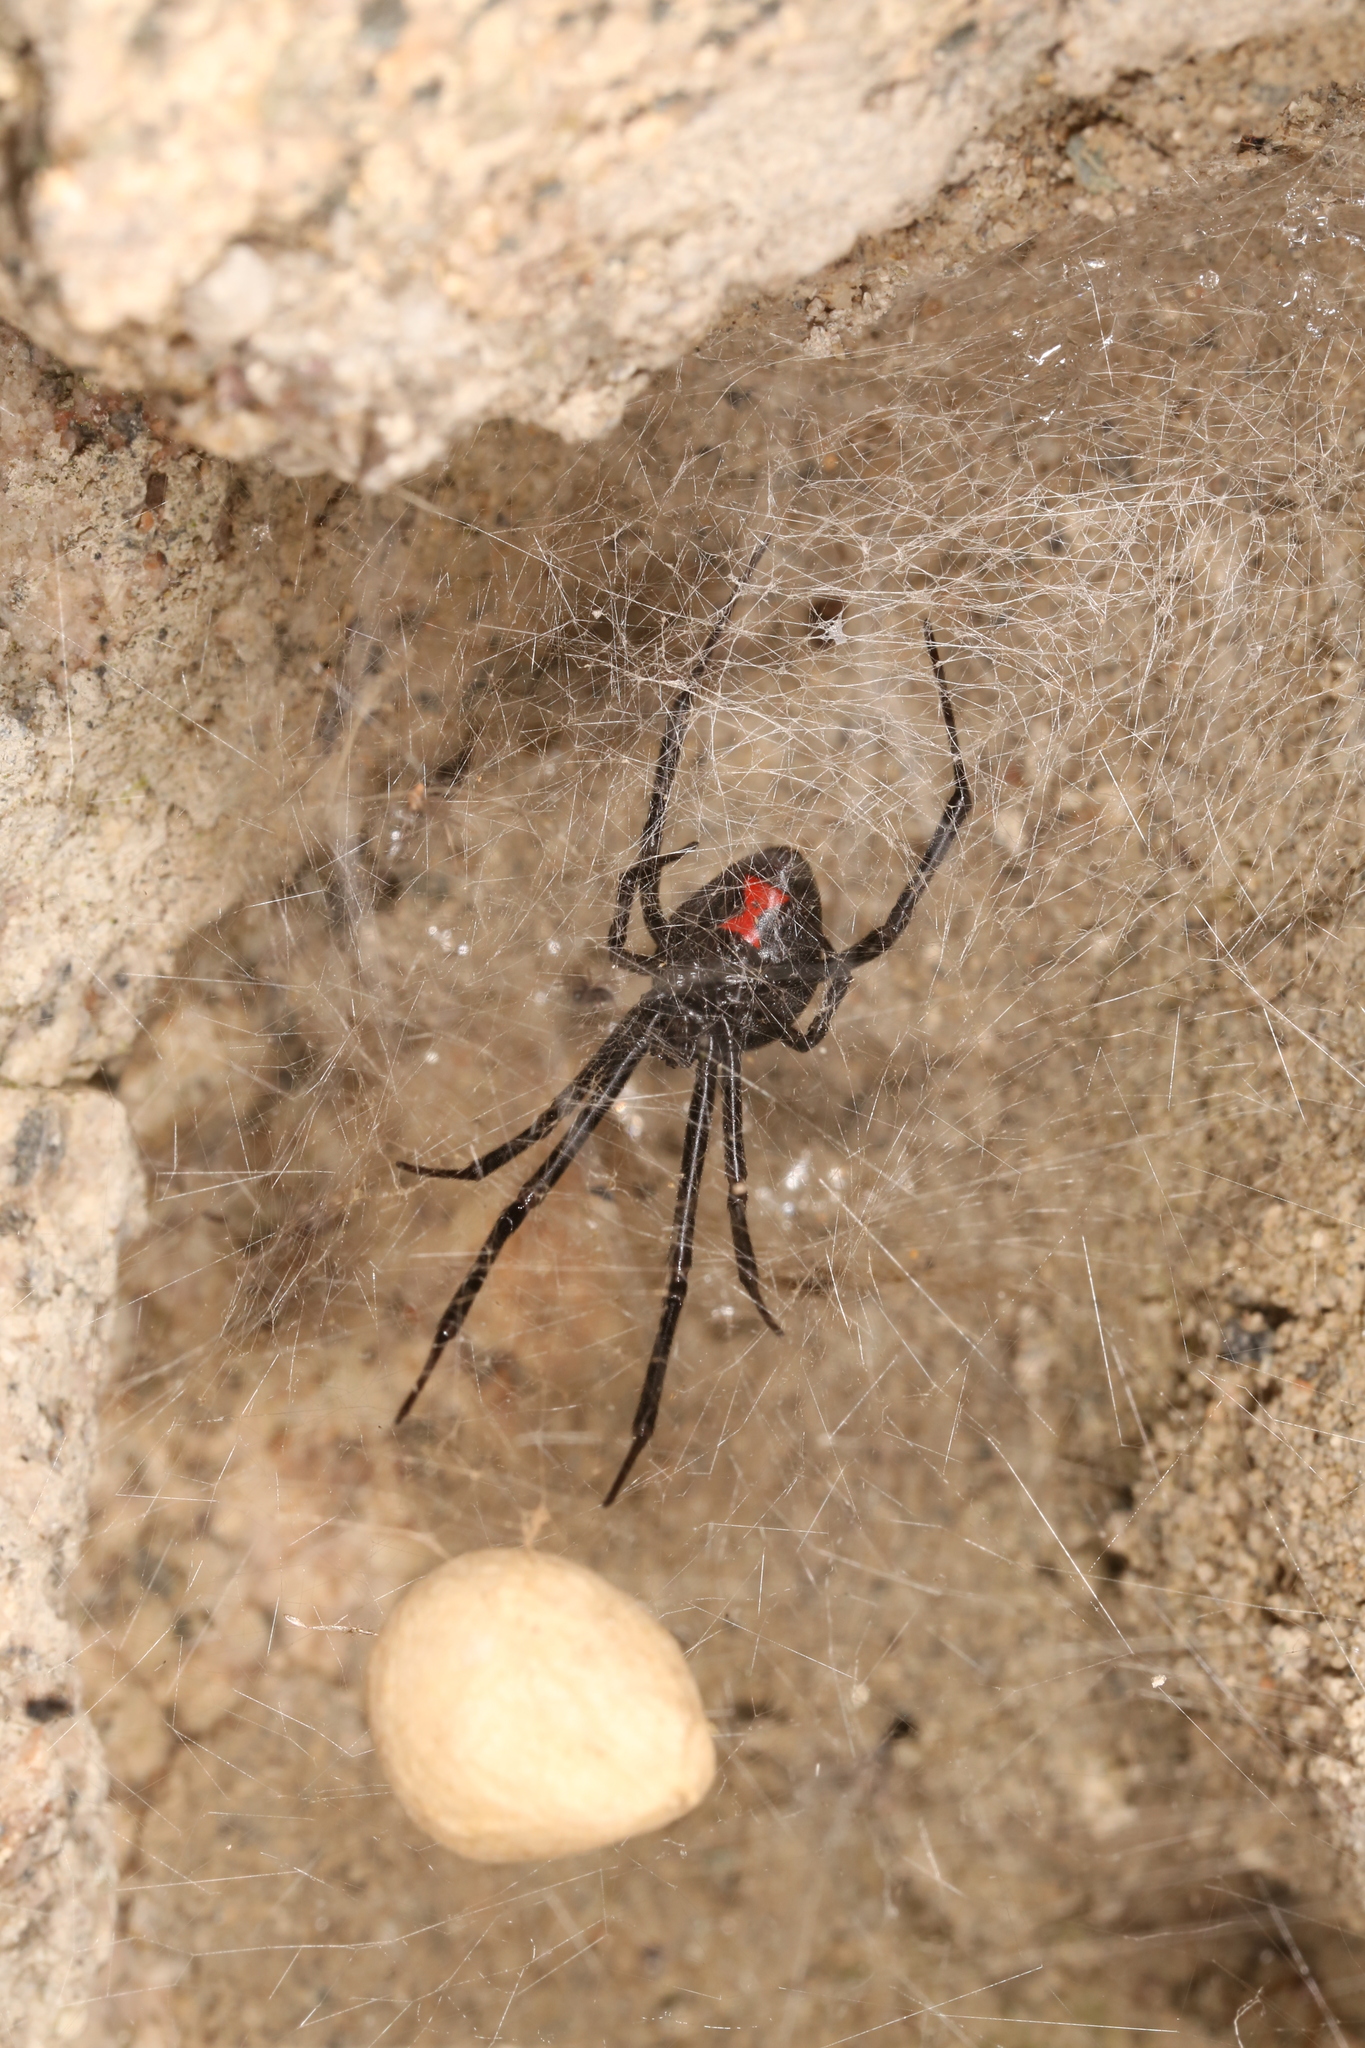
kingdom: Animalia
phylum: Arthropoda
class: Arachnida
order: Araneae
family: Theridiidae
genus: Latrodectus
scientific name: Latrodectus hesperus
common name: Western black widow
